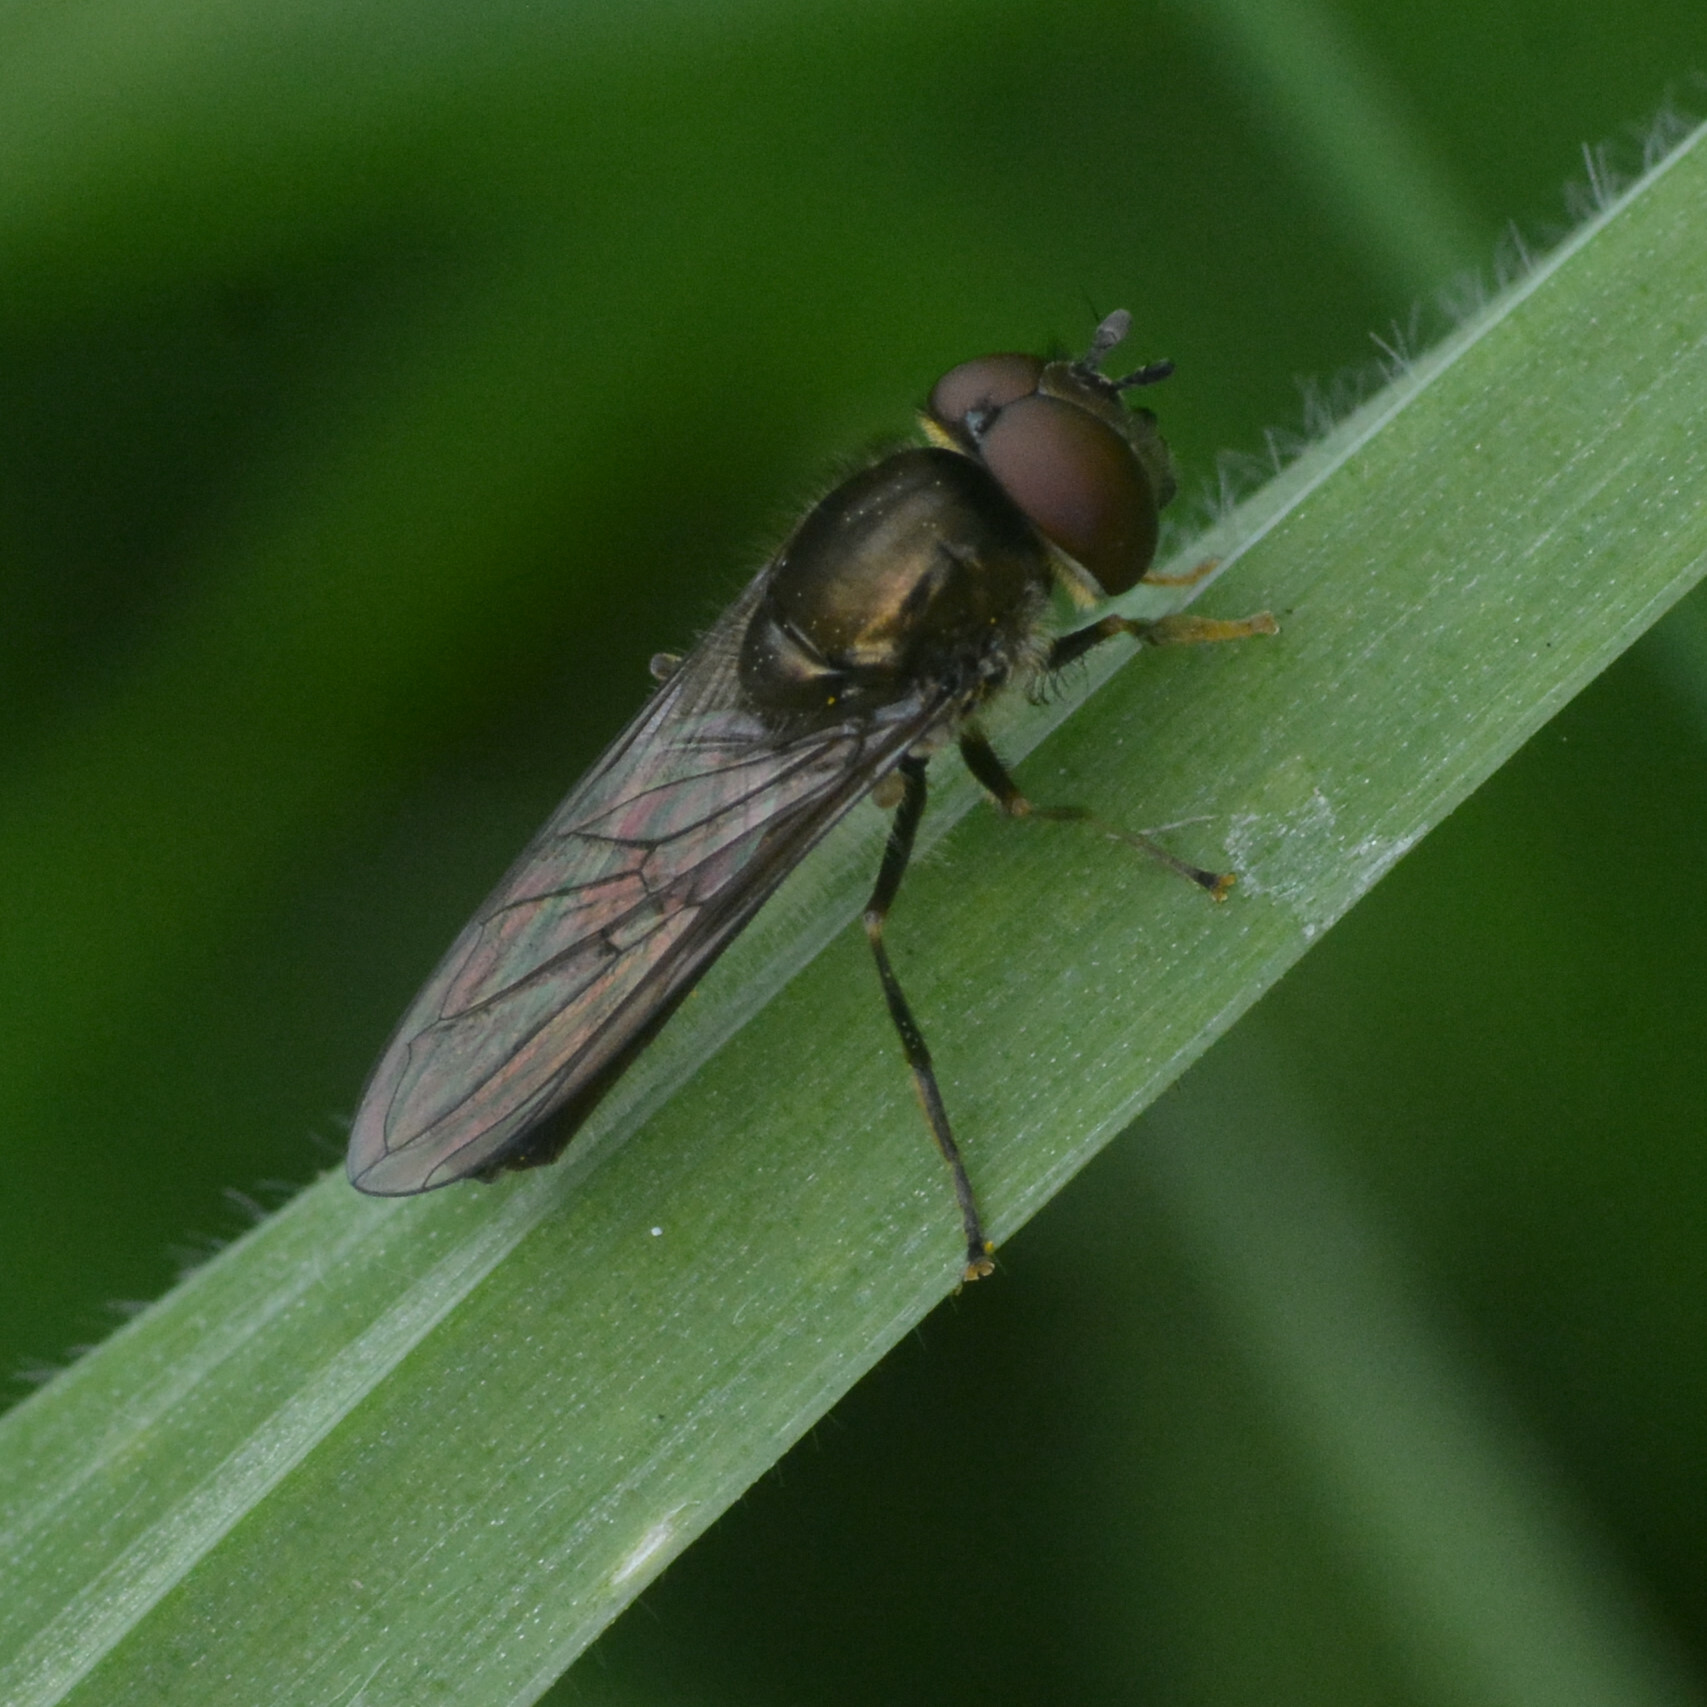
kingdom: Animalia
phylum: Arthropoda
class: Insecta
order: Diptera
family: Syrphidae
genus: Platycheirus
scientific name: Platycheirus albimanus
